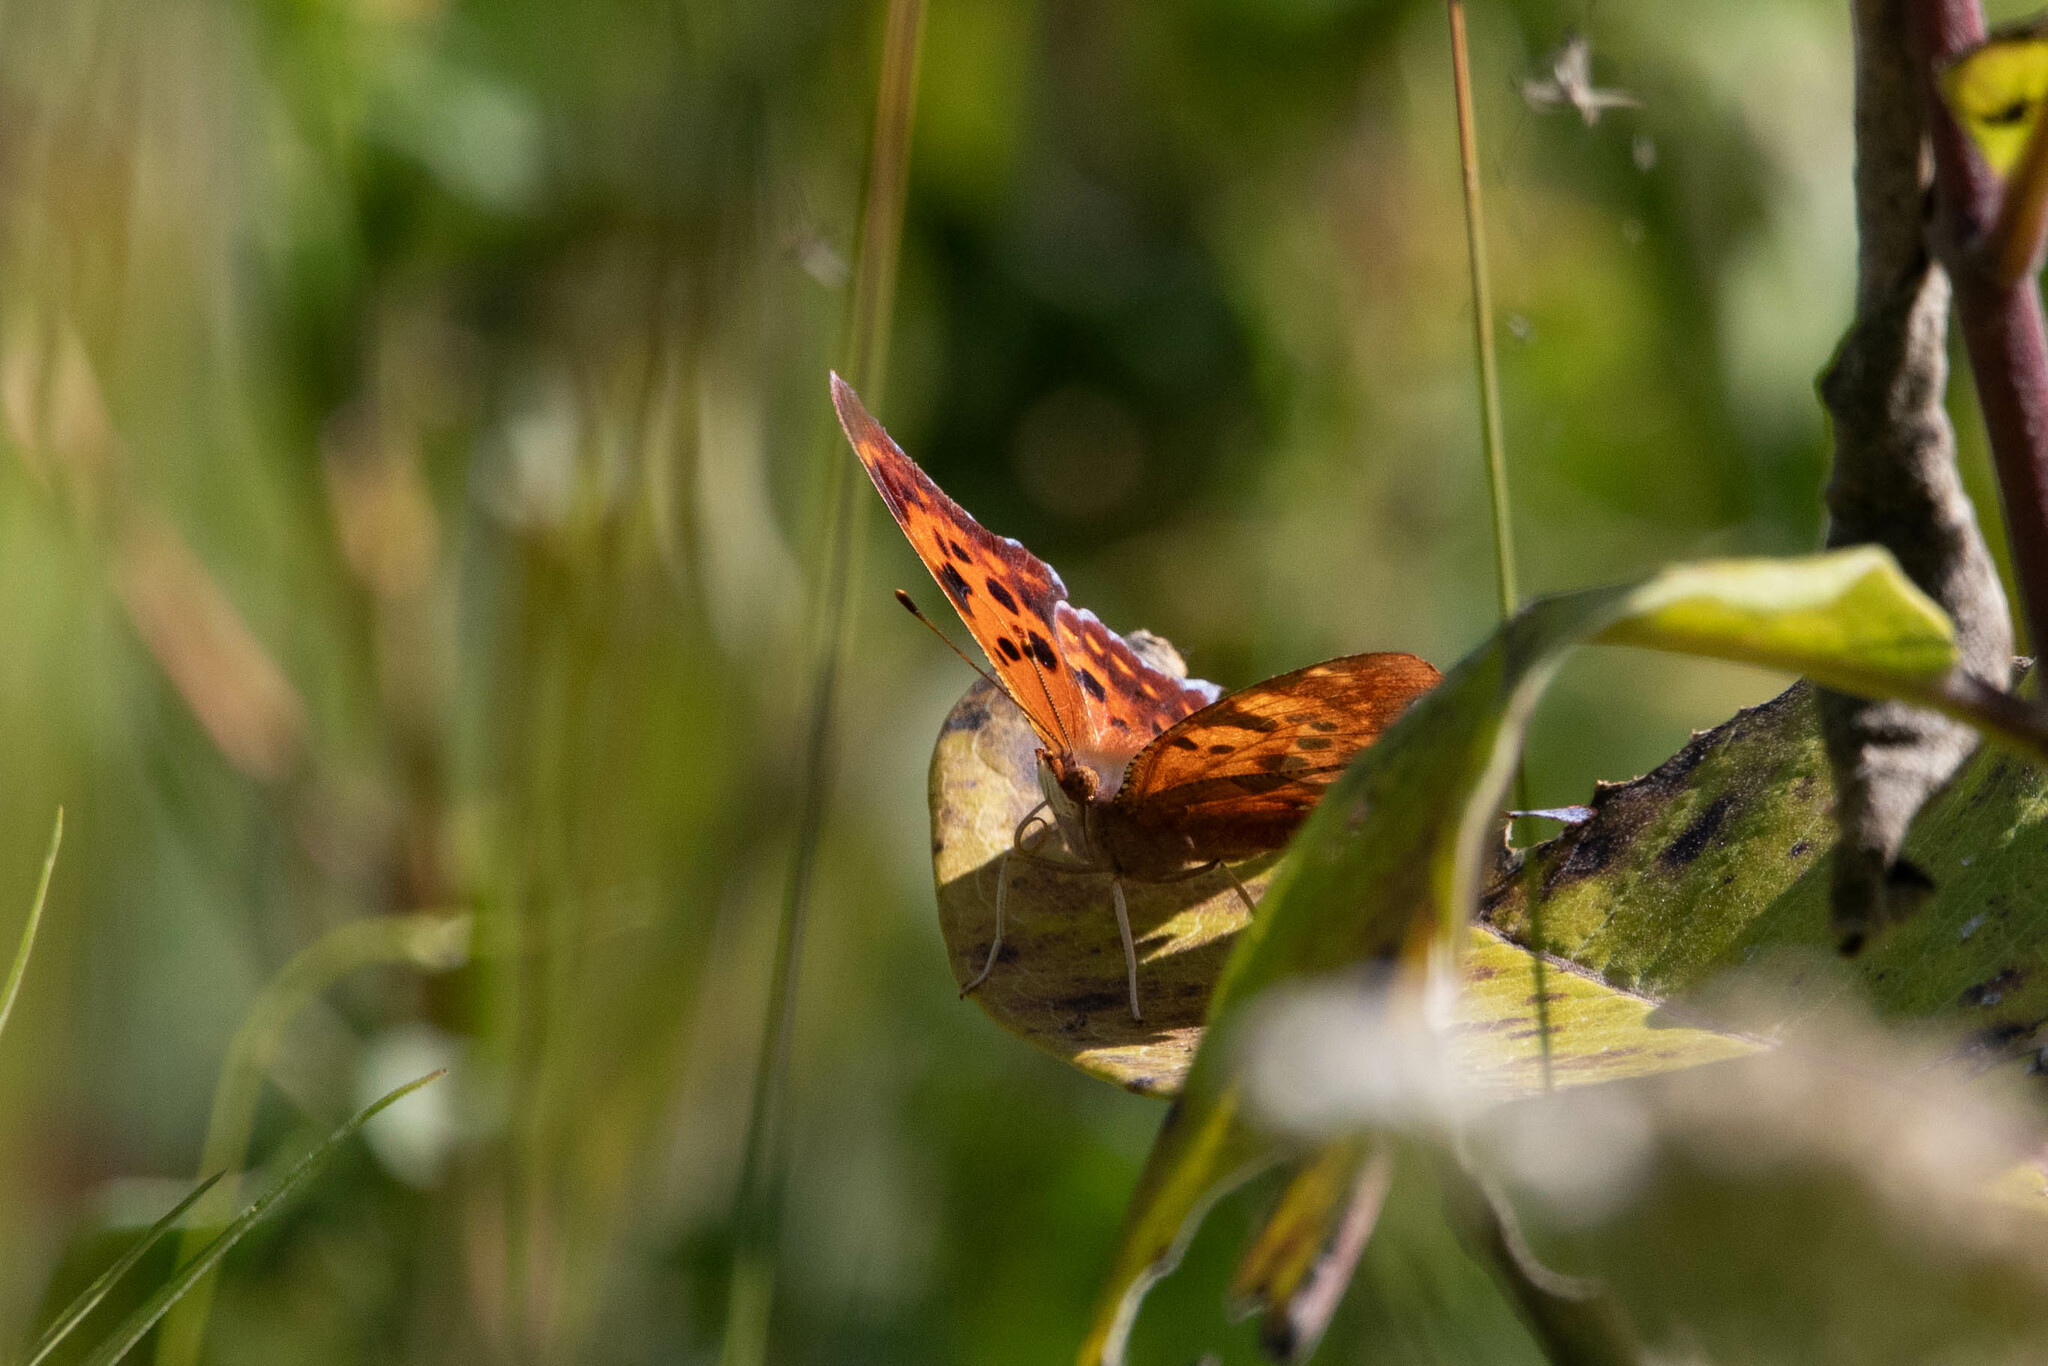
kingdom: Animalia
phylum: Arthropoda
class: Insecta
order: Lepidoptera
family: Nymphalidae
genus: Polygonia
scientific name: Polygonia interrogationis
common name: Question mark
